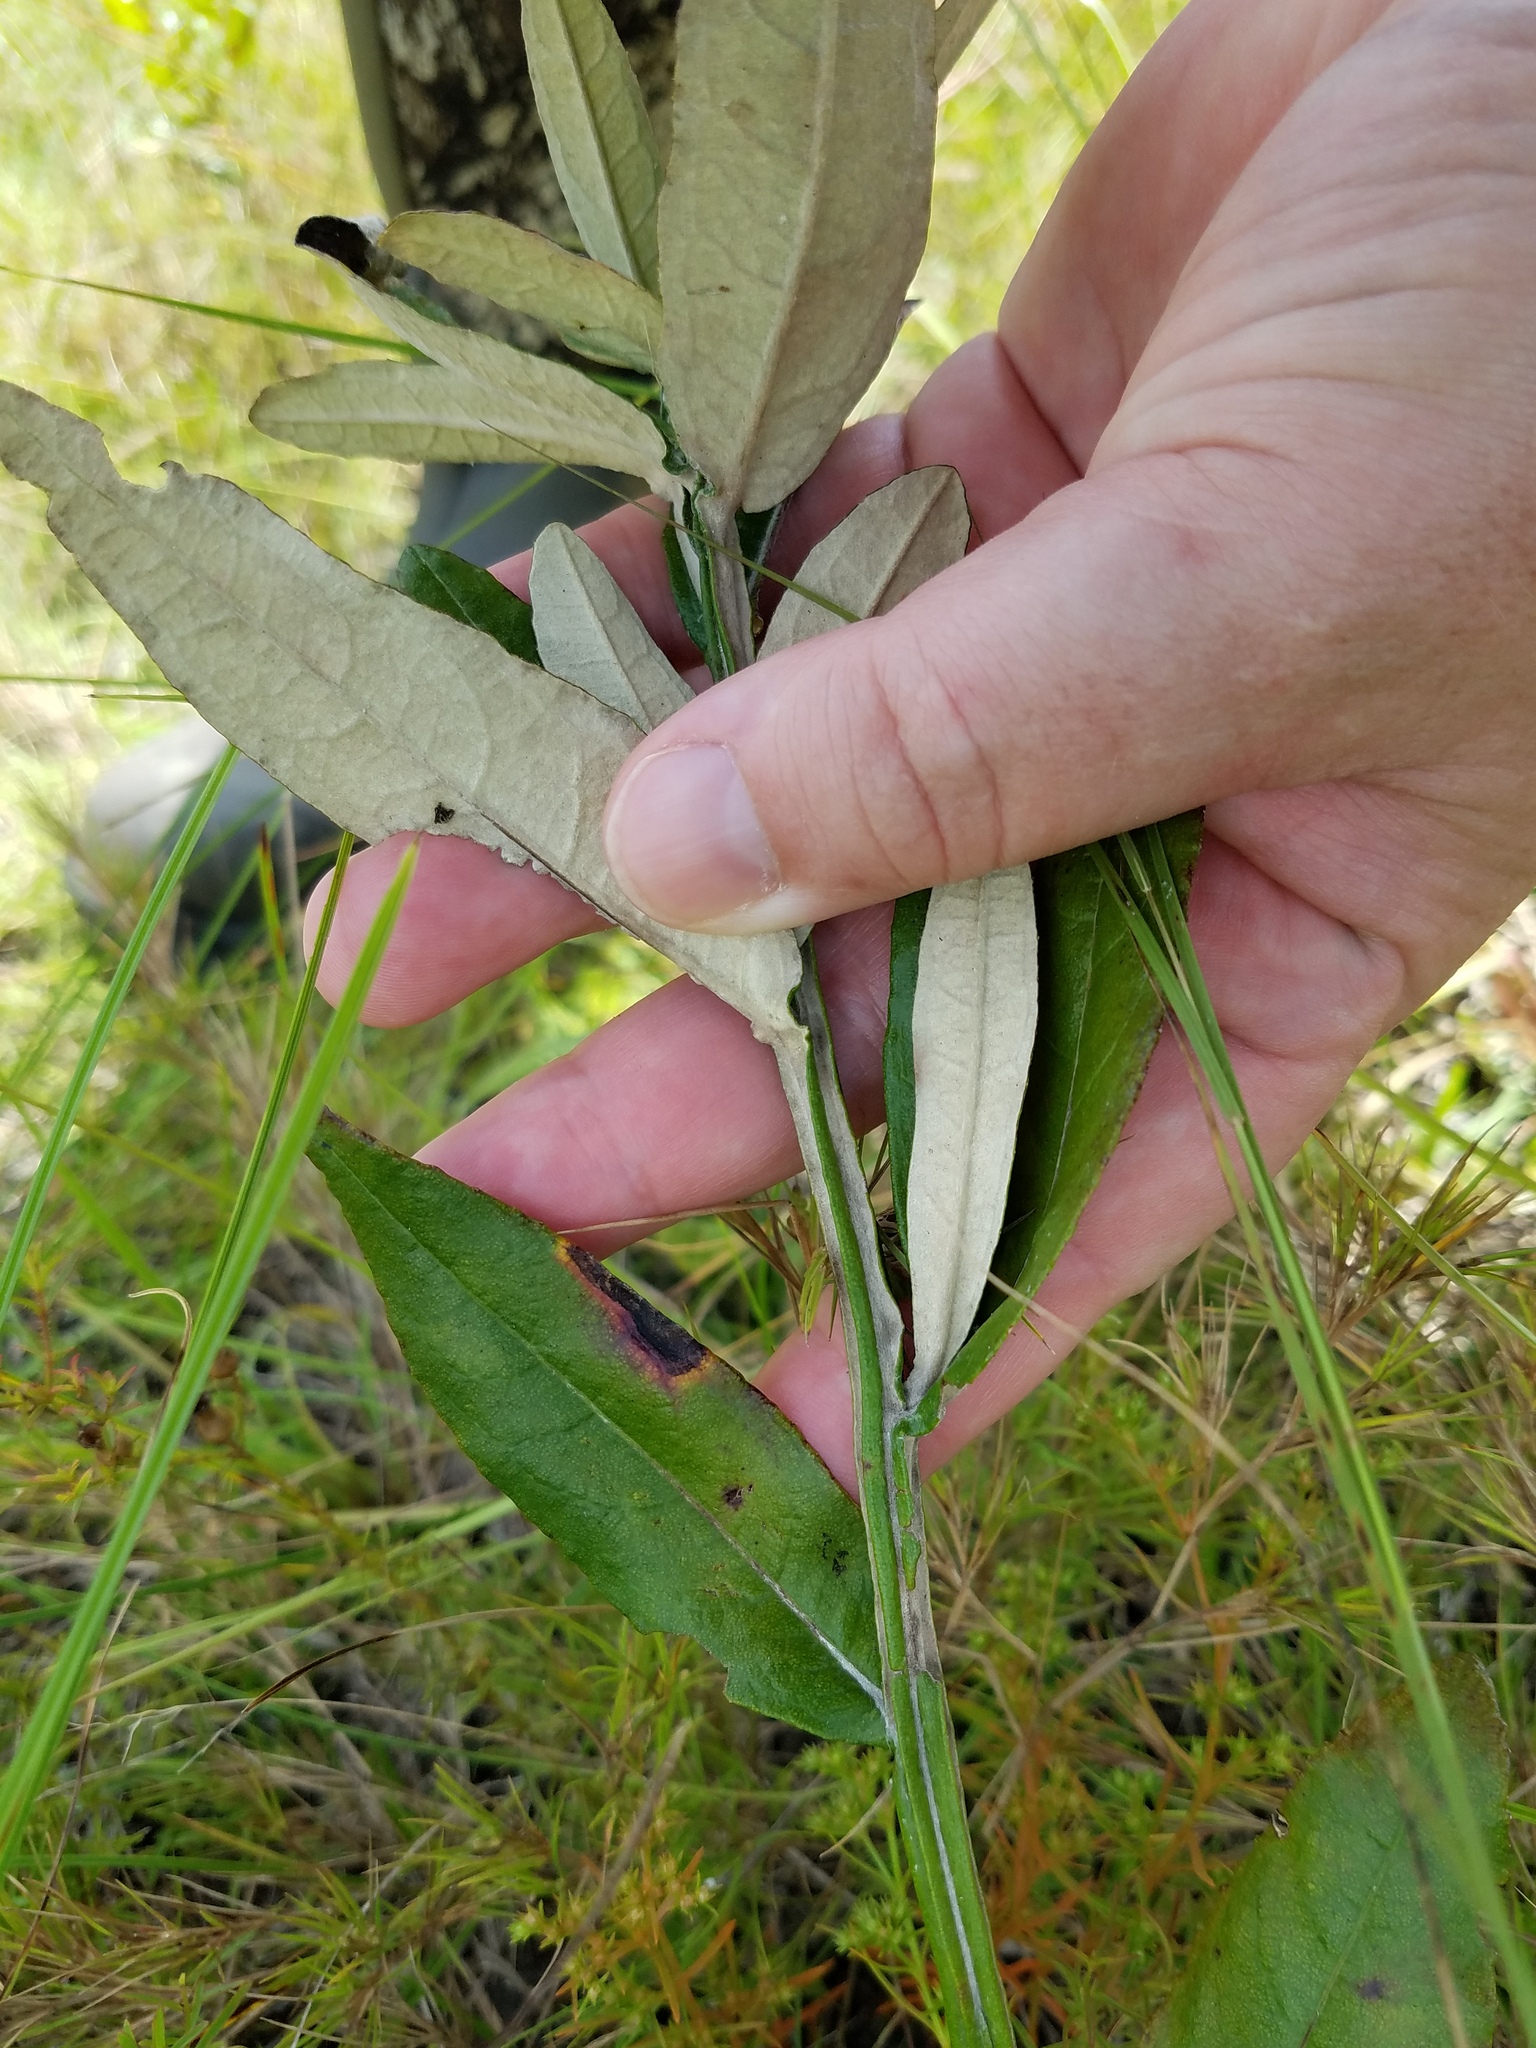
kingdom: Plantae
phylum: Tracheophyta
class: Magnoliopsida
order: Asterales
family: Asteraceae
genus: Pterocaulon
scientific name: Pterocaulon pycnostachyum
